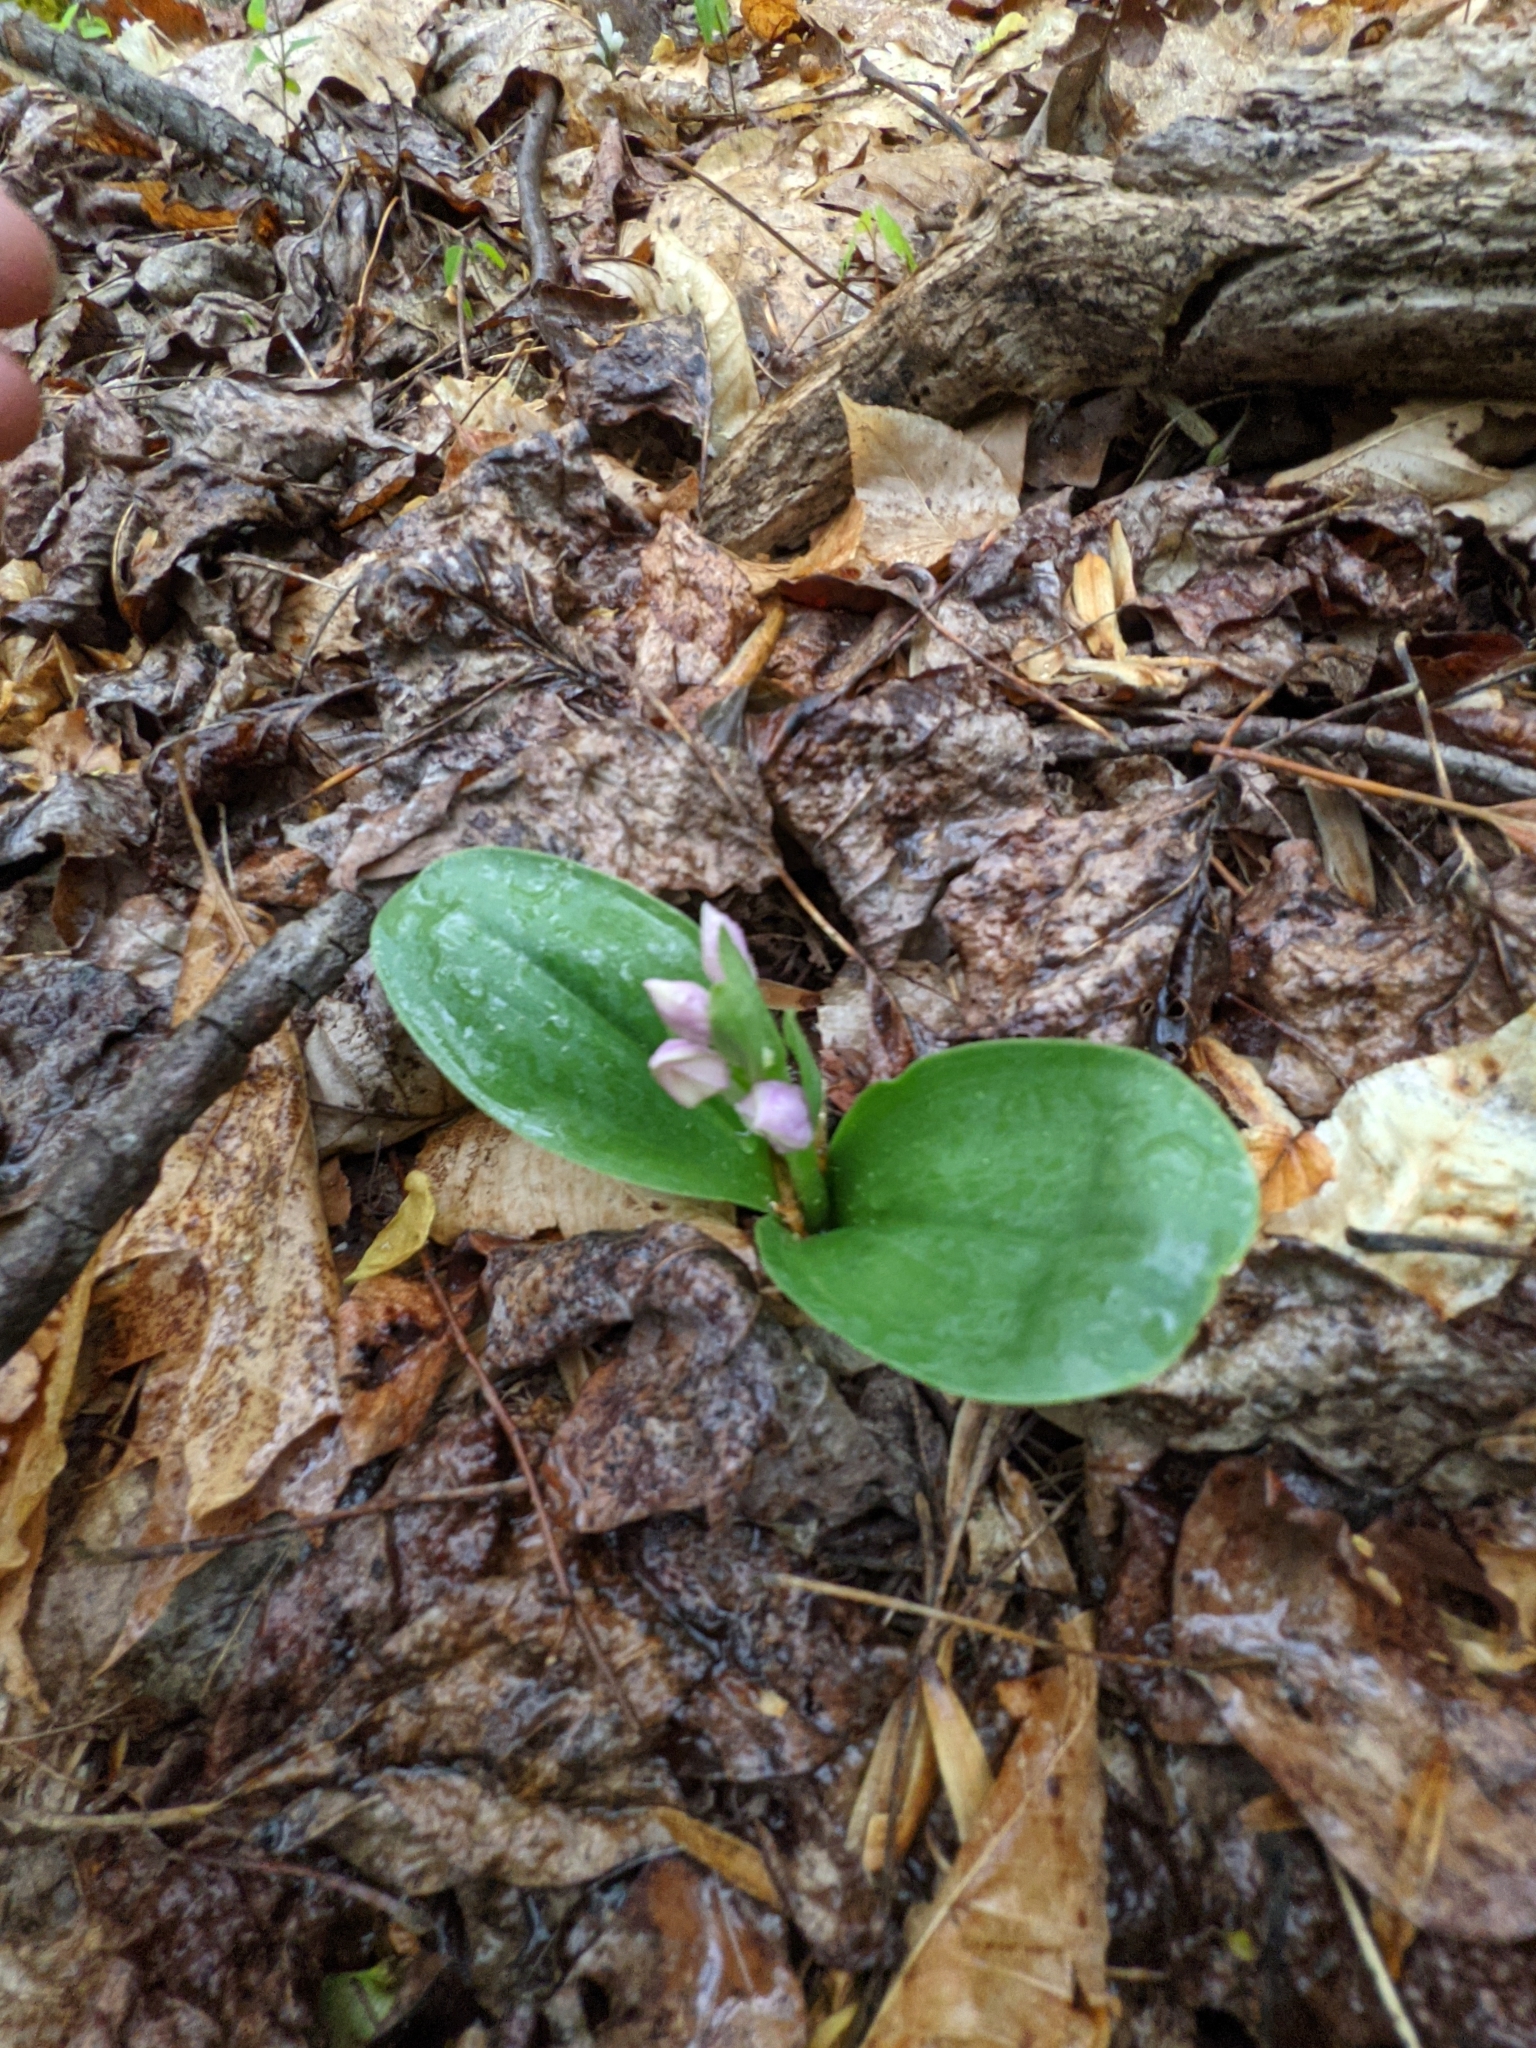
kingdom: Plantae
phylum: Tracheophyta
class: Liliopsida
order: Asparagales
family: Orchidaceae
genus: Galearis
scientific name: Galearis spectabilis
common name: Purple-hooded orchis
